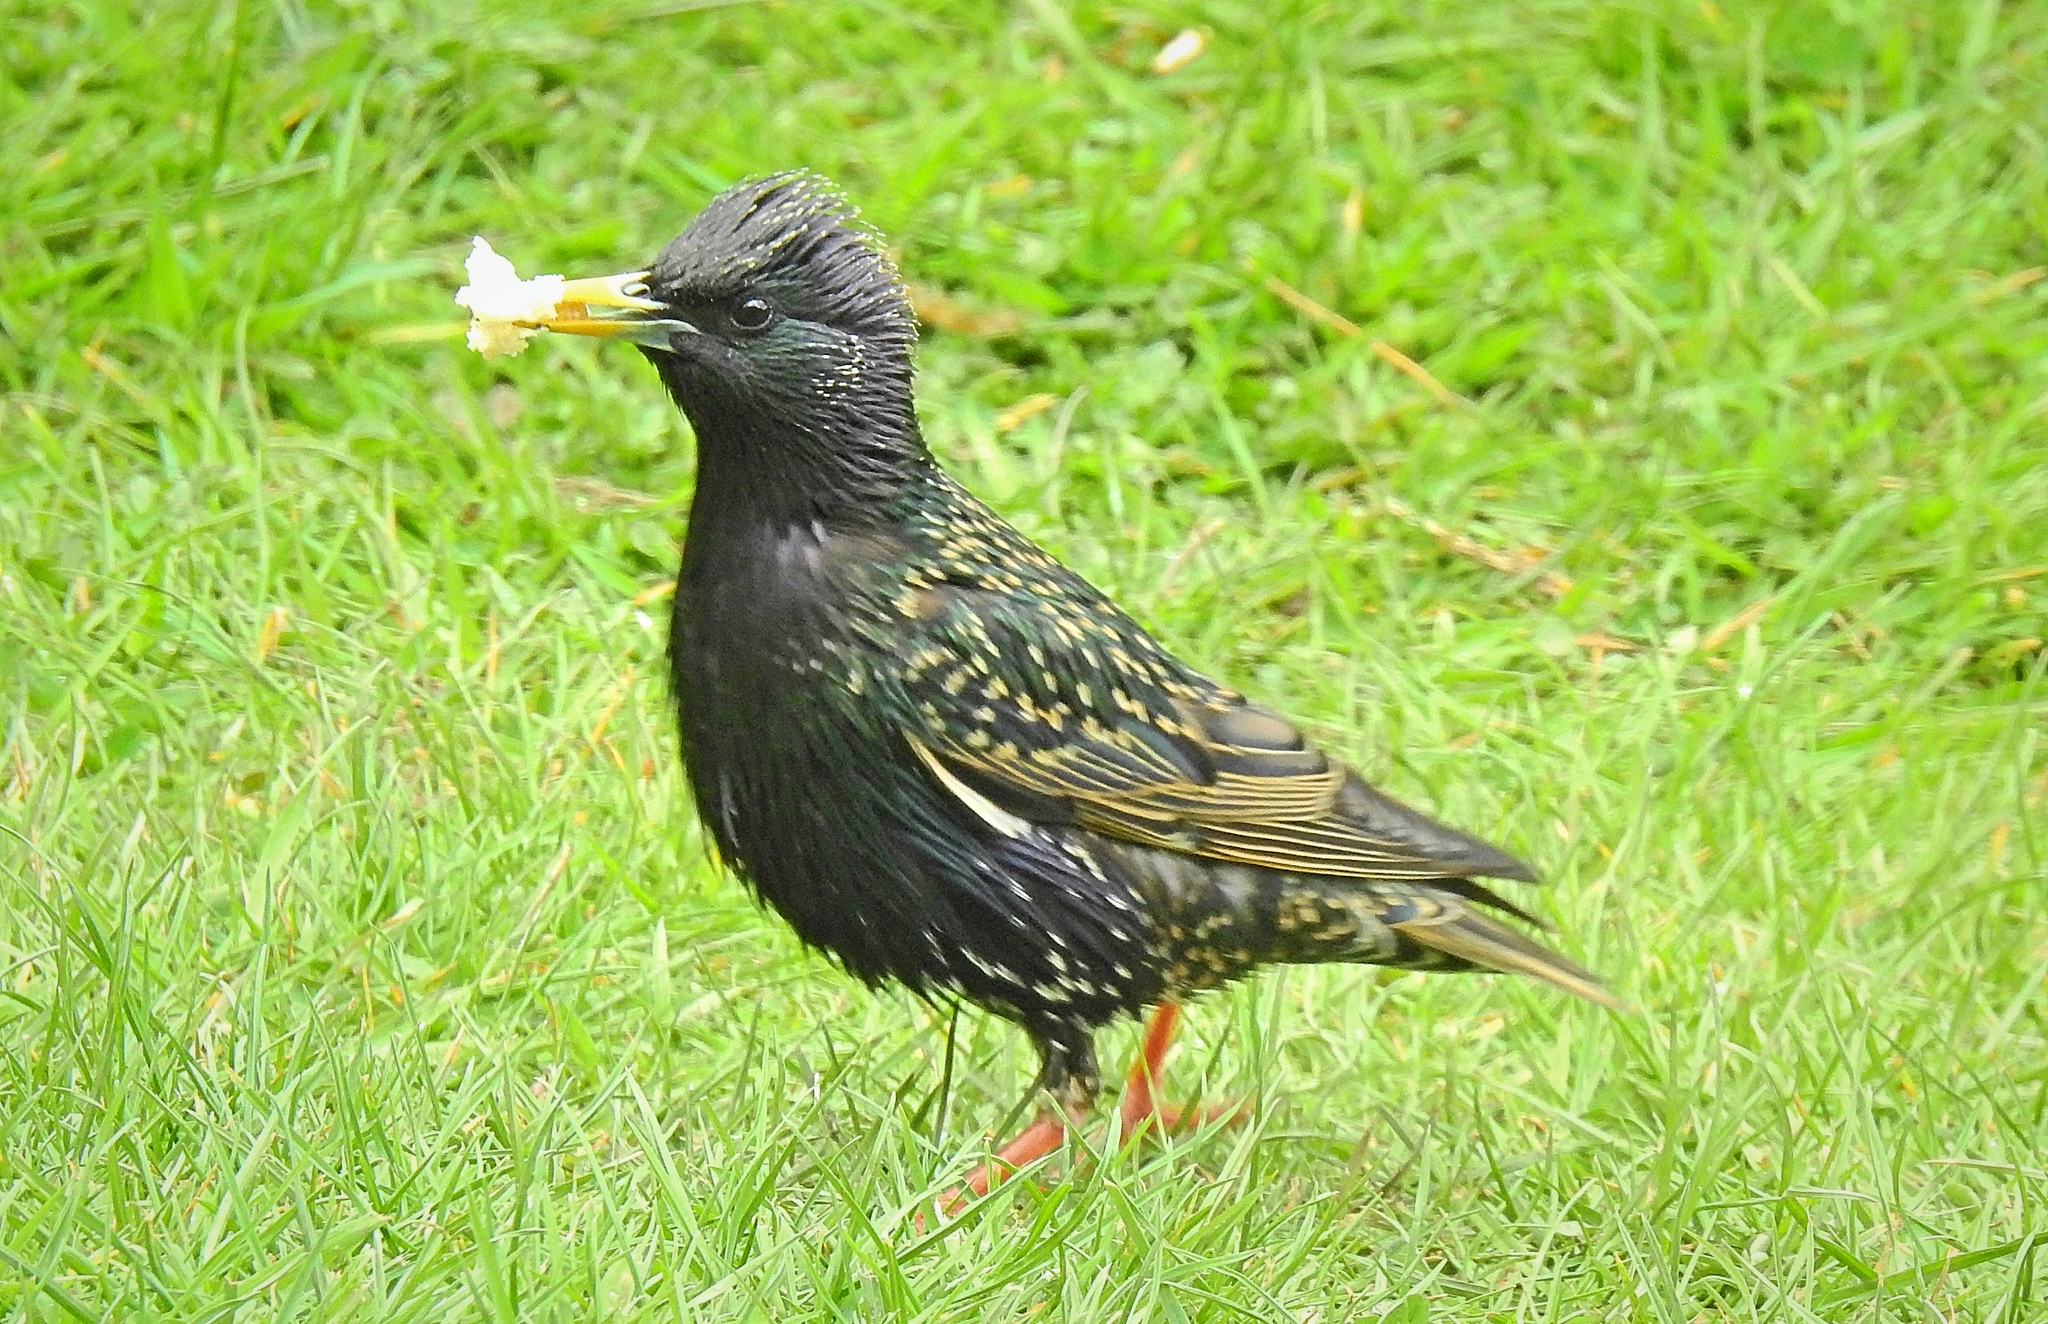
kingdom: Animalia
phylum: Chordata
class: Aves
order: Passeriformes
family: Sturnidae
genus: Sturnus
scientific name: Sturnus vulgaris
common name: Common starling
